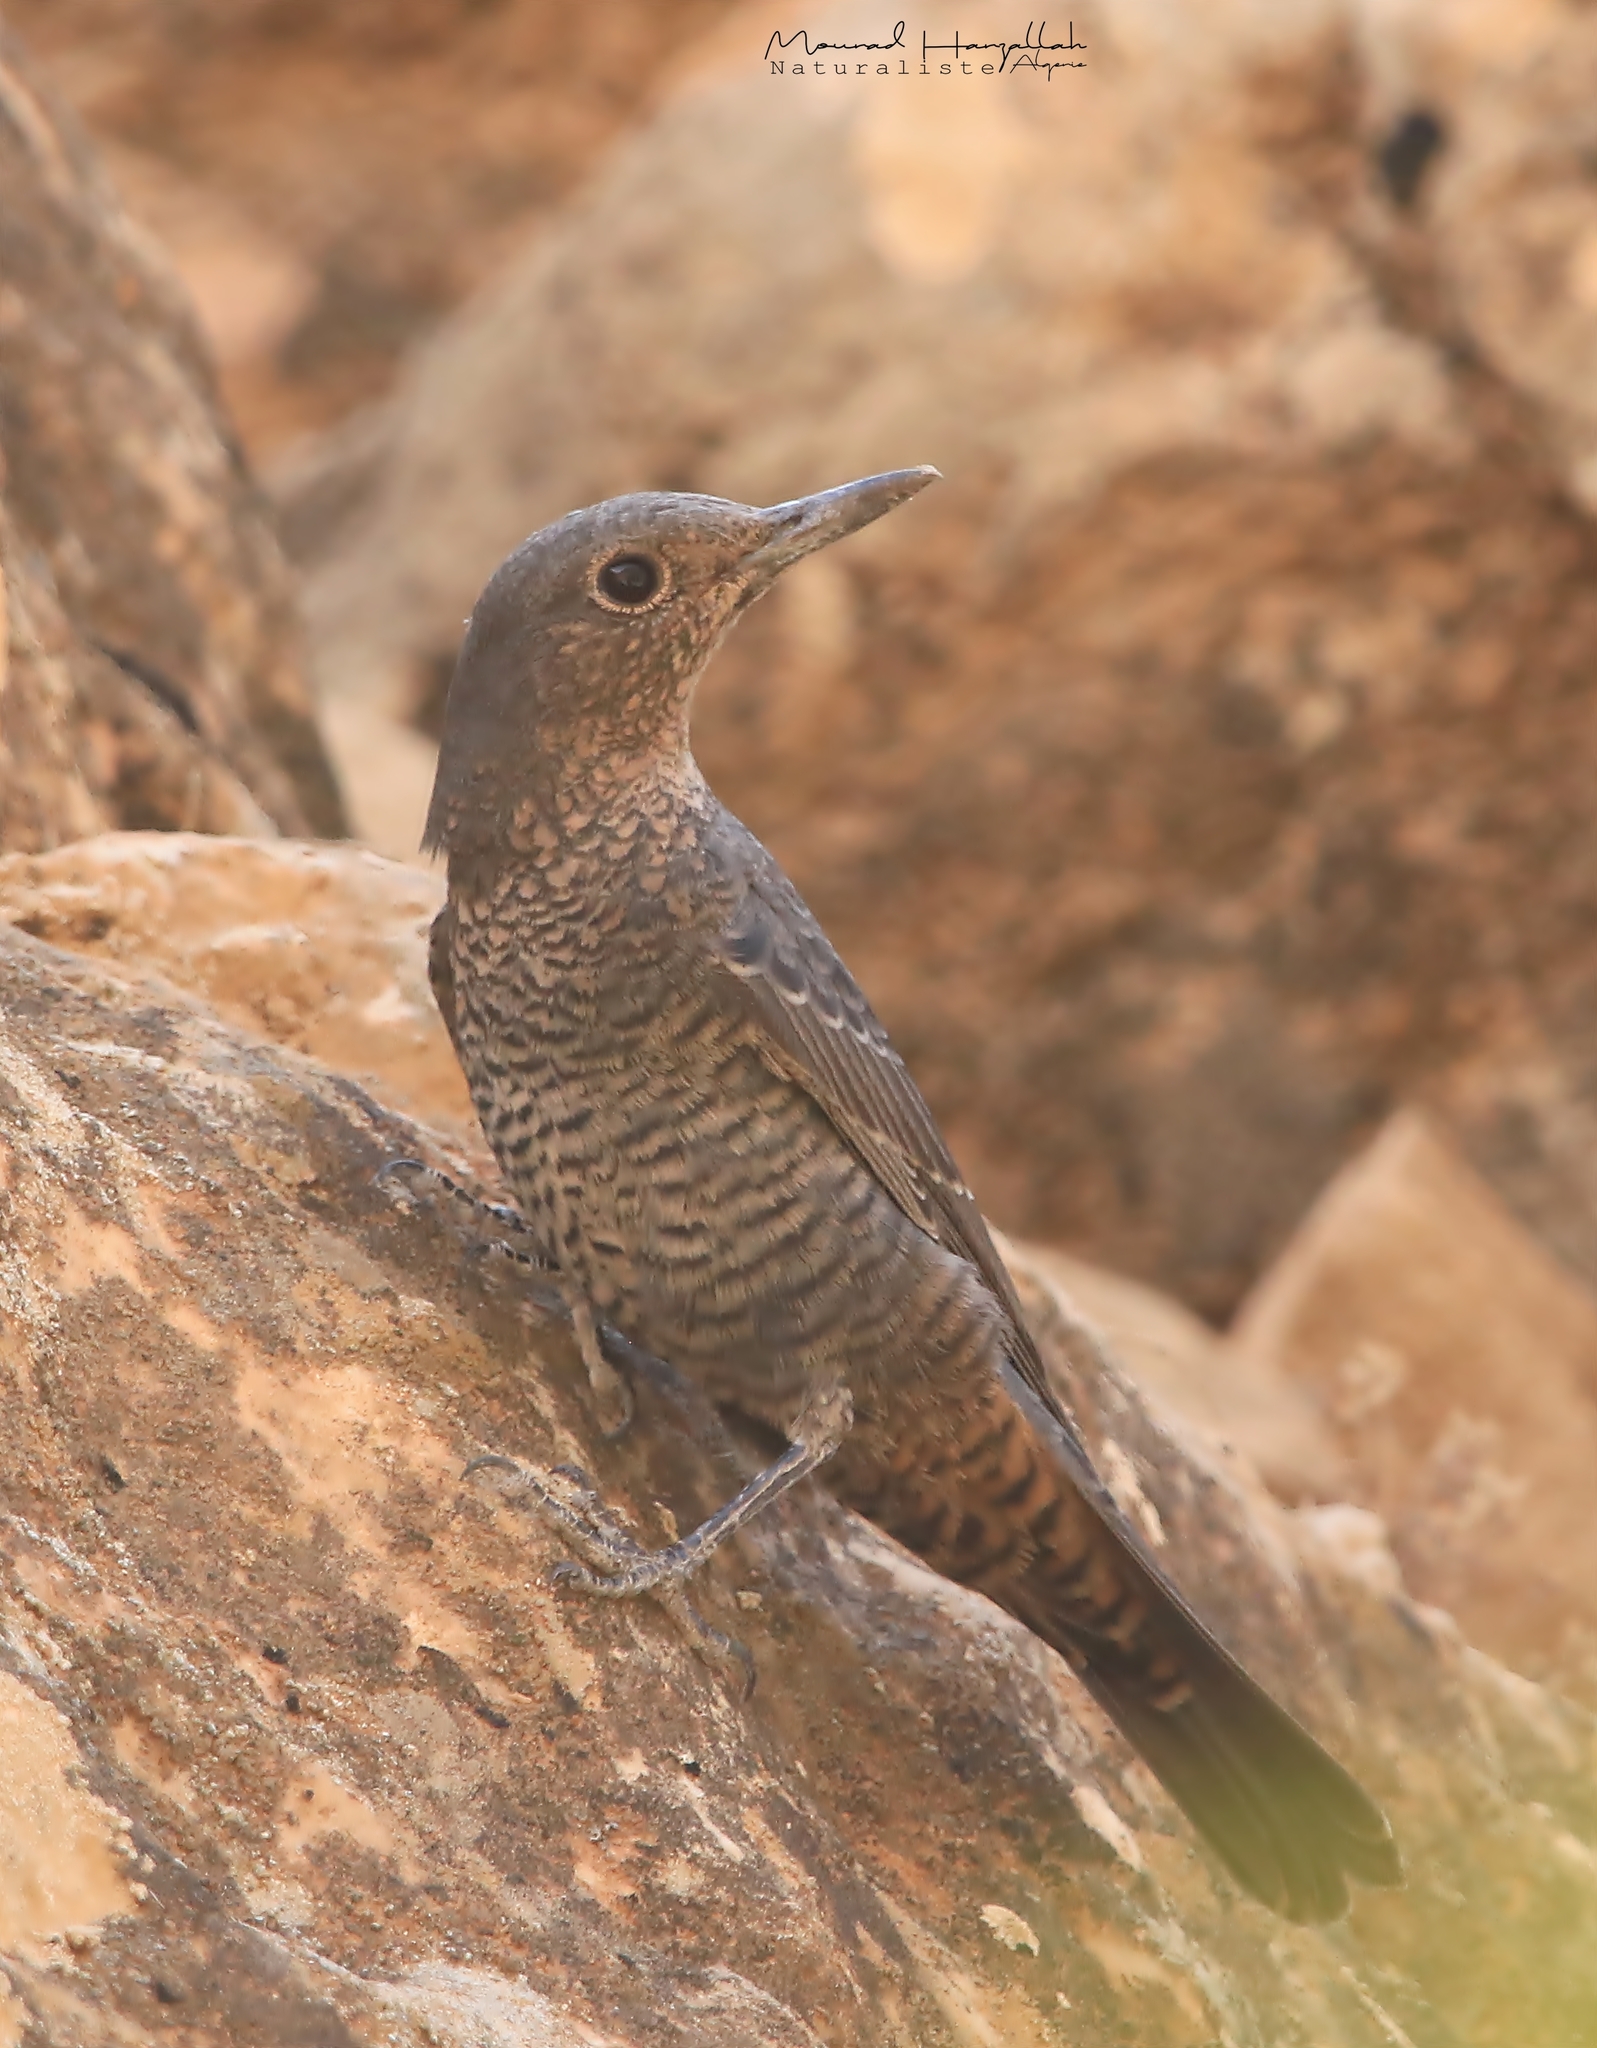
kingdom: Animalia
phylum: Chordata
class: Aves
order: Passeriformes
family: Muscicapidae
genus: Monticola
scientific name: Monticola solitarius
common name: Blue rock thrush
